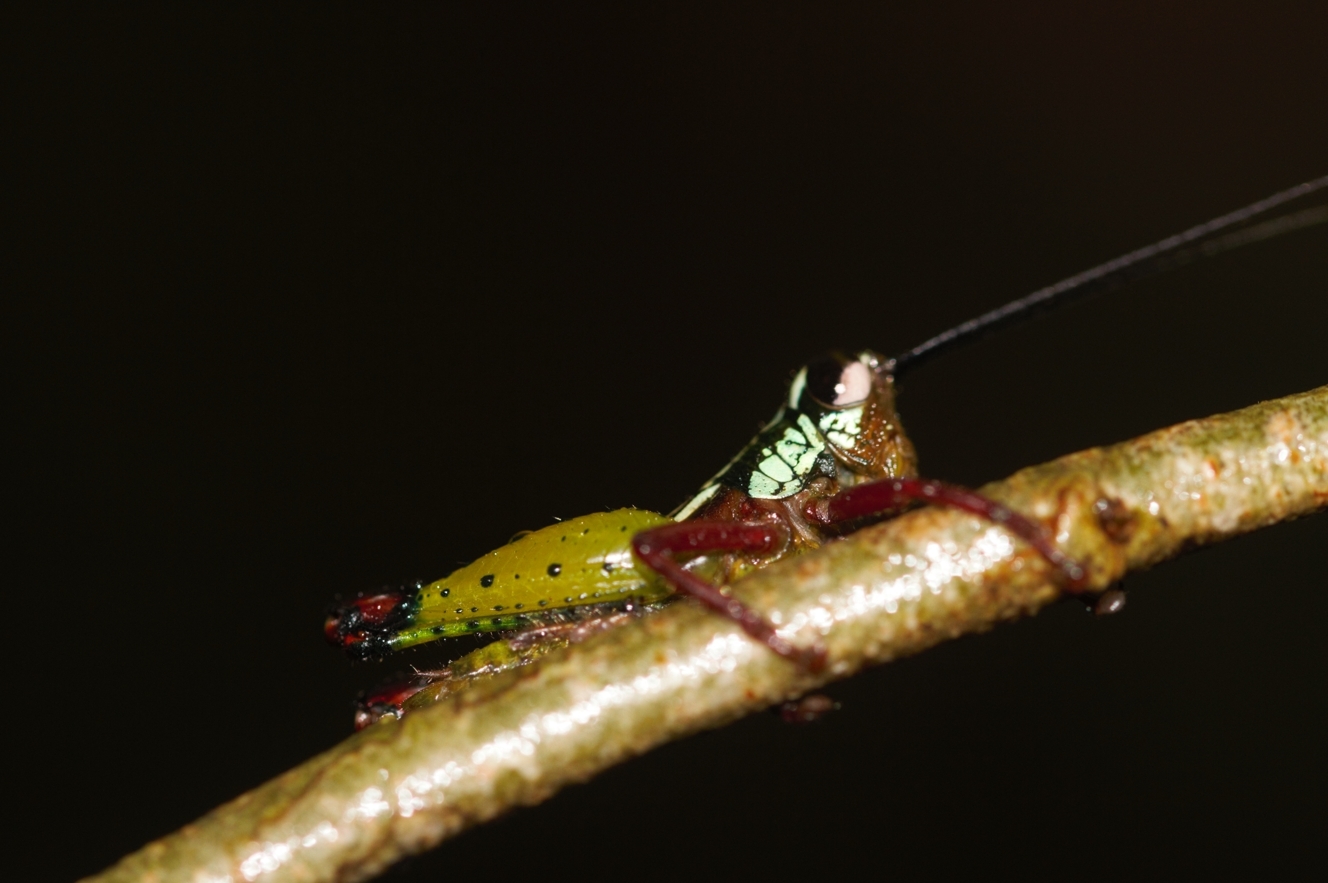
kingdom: Animalia
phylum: Arthropoda
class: Insecta
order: Orthoptera
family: Romaleidae
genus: Othnacris
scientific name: Othnacris surdaster
